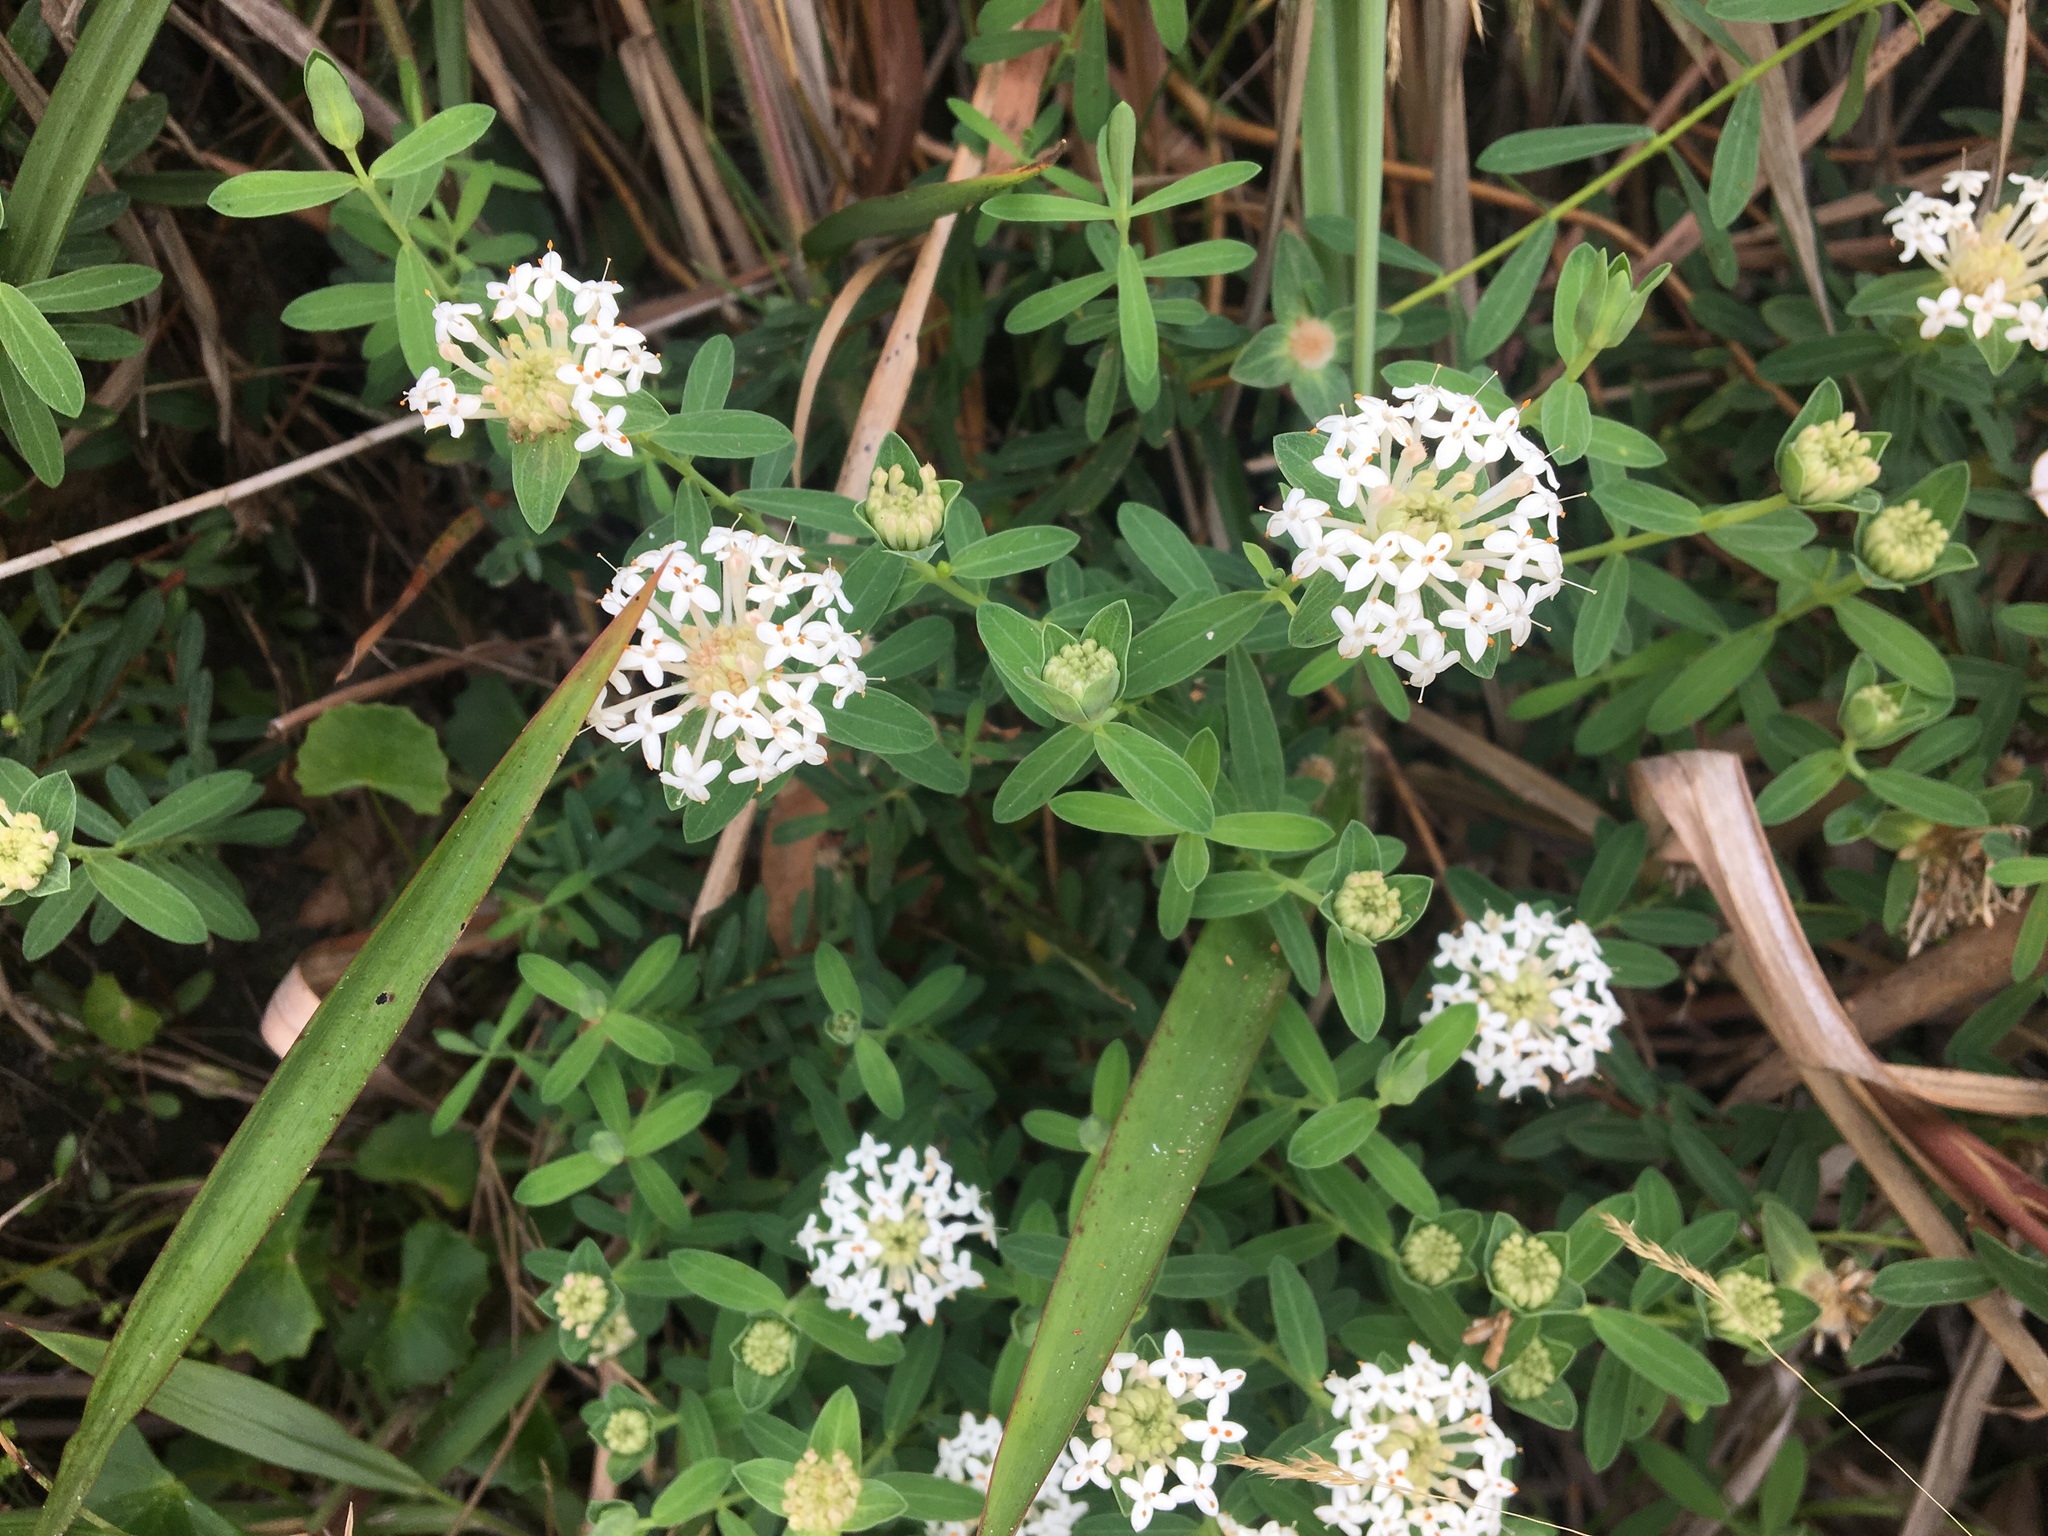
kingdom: Plantae
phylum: Tracheophyta
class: Magnoliopsida
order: Malvales
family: Thymelaeaceae
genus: Pimelea
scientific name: Pimelea linifolia
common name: Queen-of-the-bush
